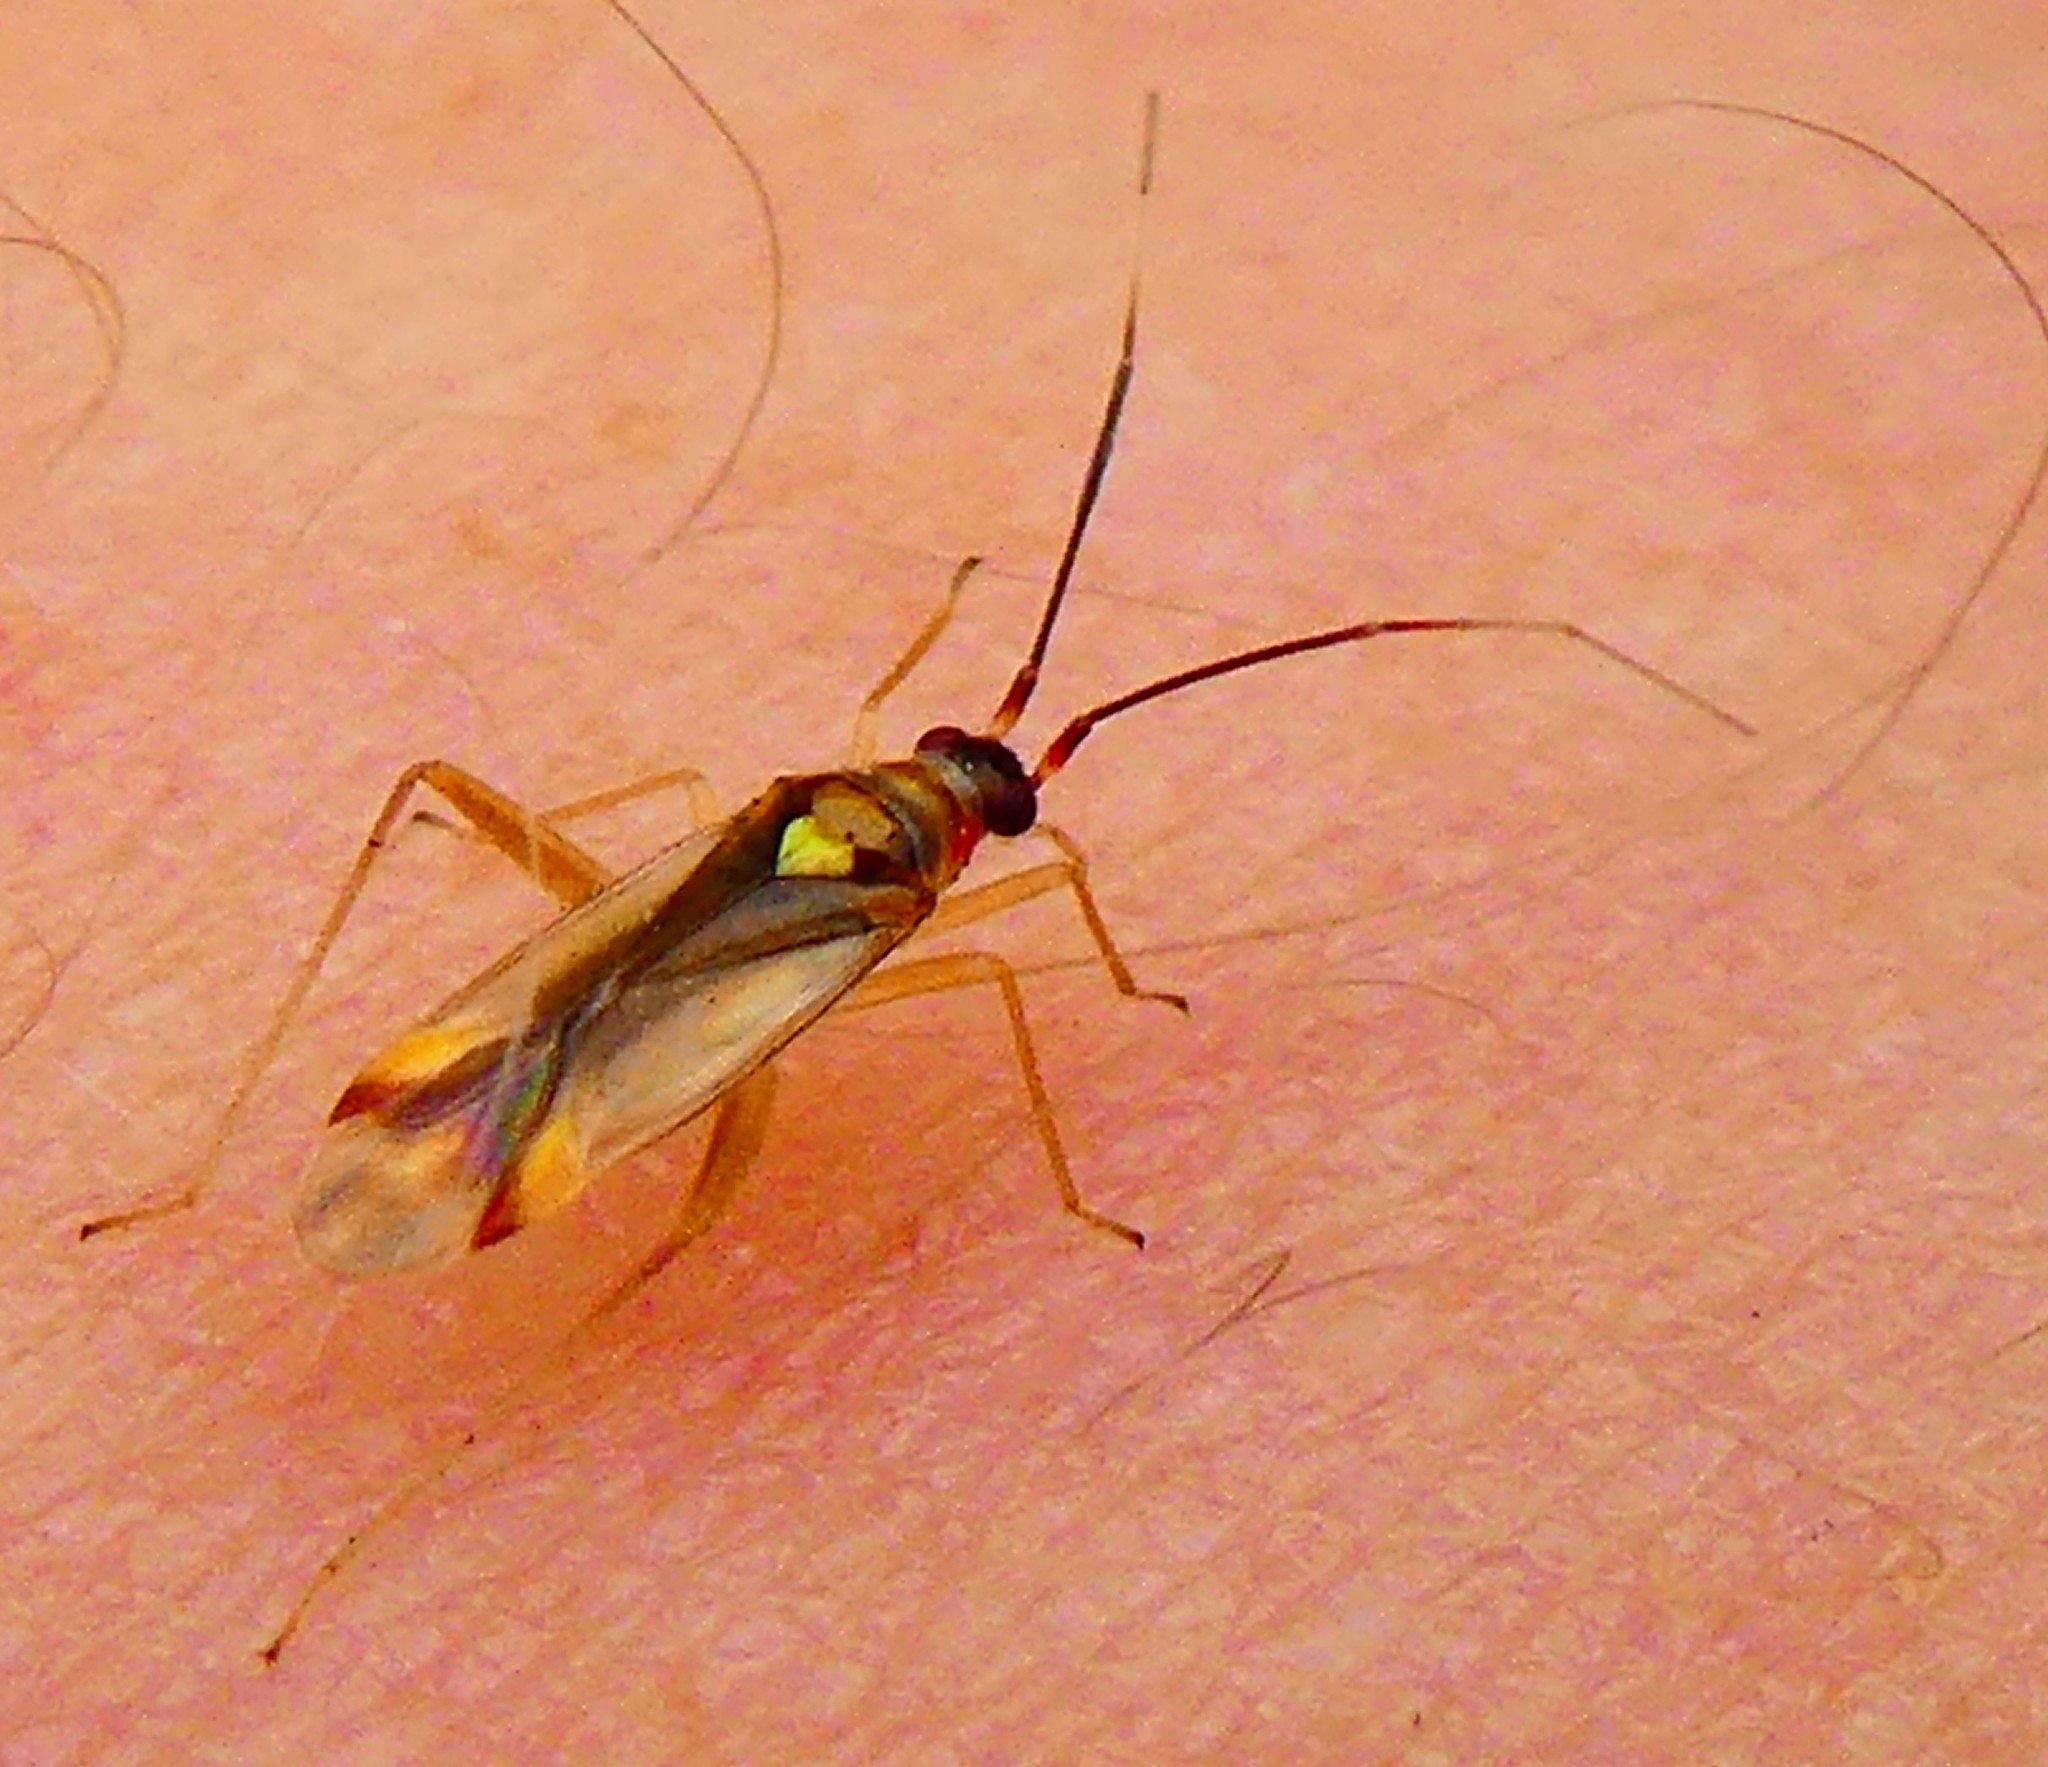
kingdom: Animalia
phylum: Arthropoda
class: Insecta
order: Hemiptera
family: Miridae
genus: Campyloneura
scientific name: Campyloneura virgula
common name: Predatory bug
